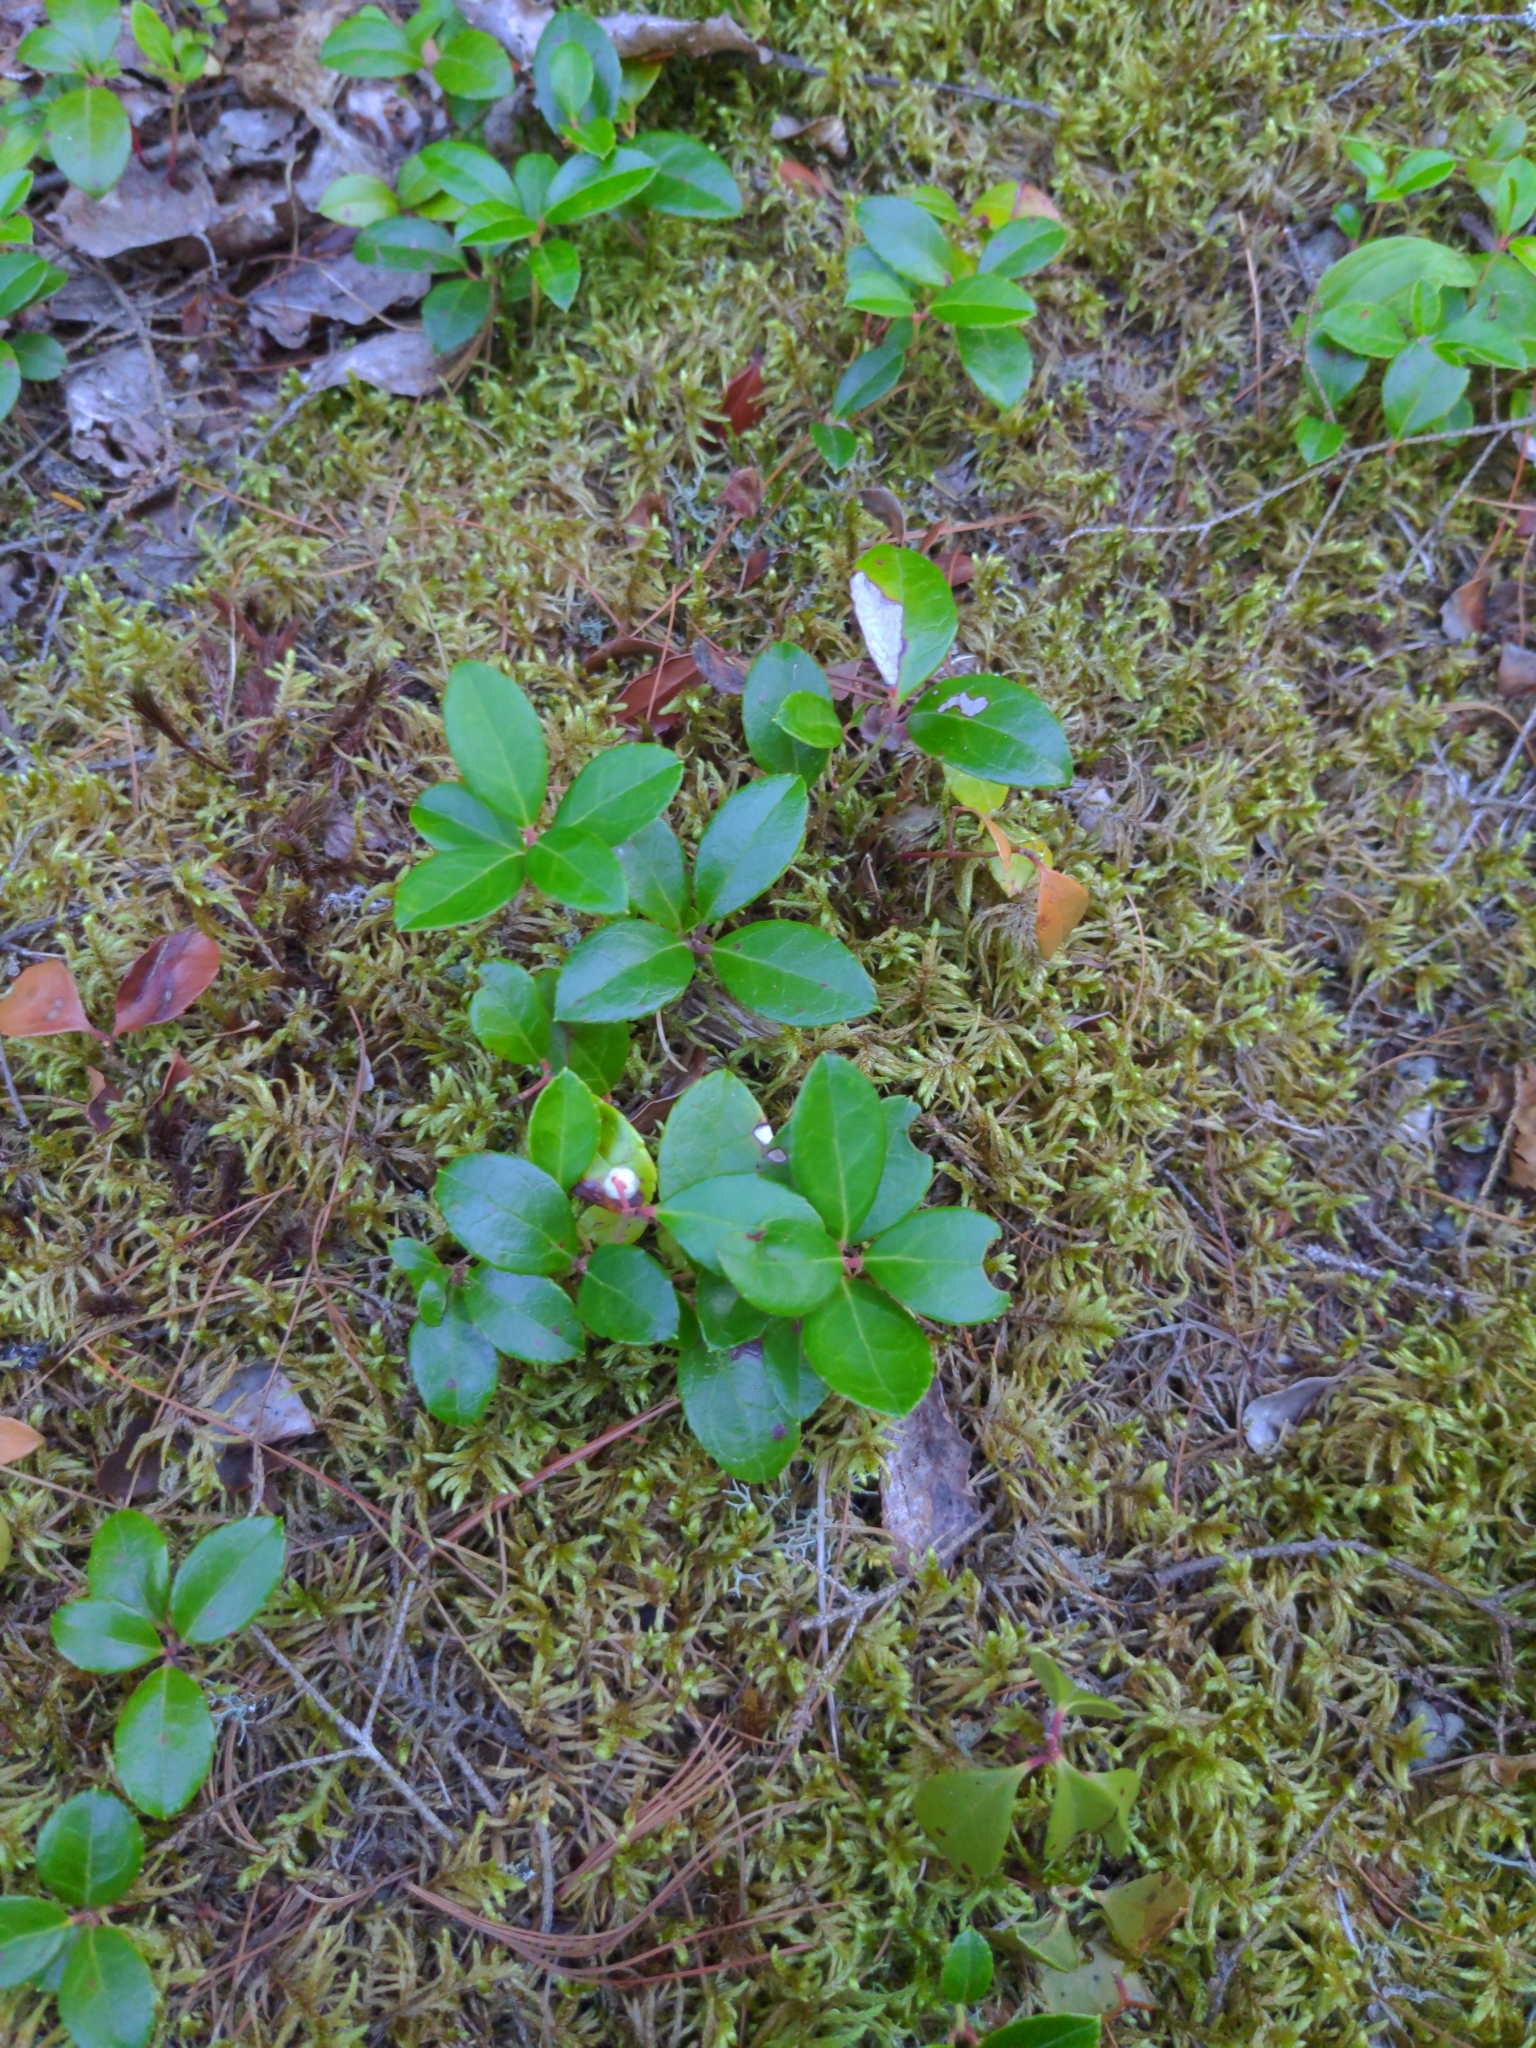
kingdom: Plantae
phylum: Tracheophyta
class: Magnoliopsida
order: Ericales
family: Ericaceae
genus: Gaultheria
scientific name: Gaultheria procumbens
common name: Checkerberry
